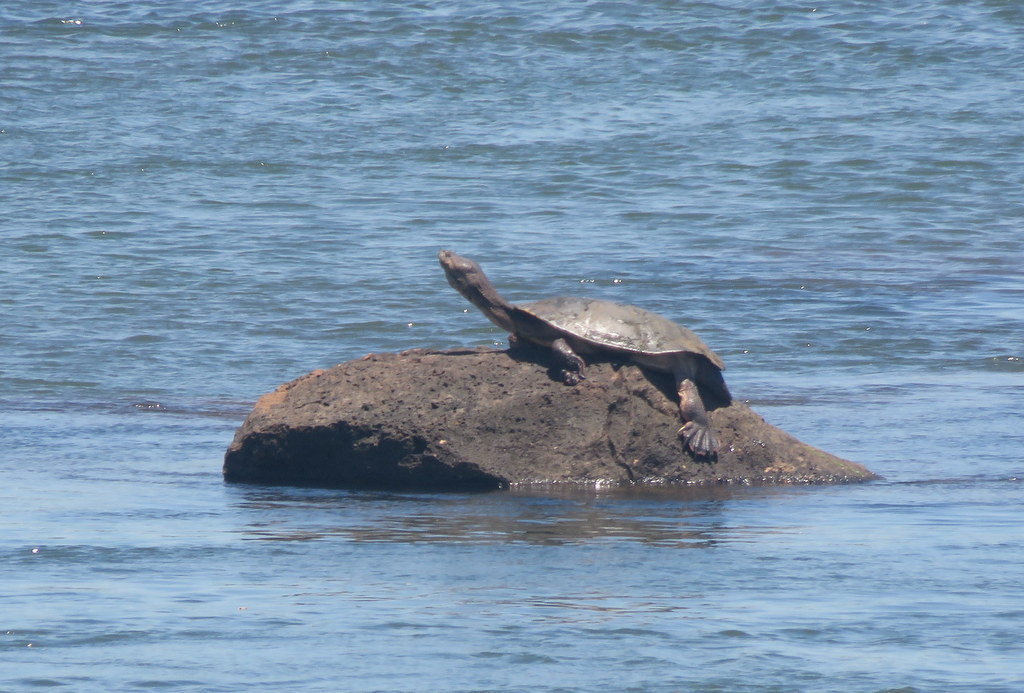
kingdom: Animalia
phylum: Chordata
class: Testudines
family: Chelidae
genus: Phrynops
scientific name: Phrynops williamsi
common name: Williams side-necked turtle
